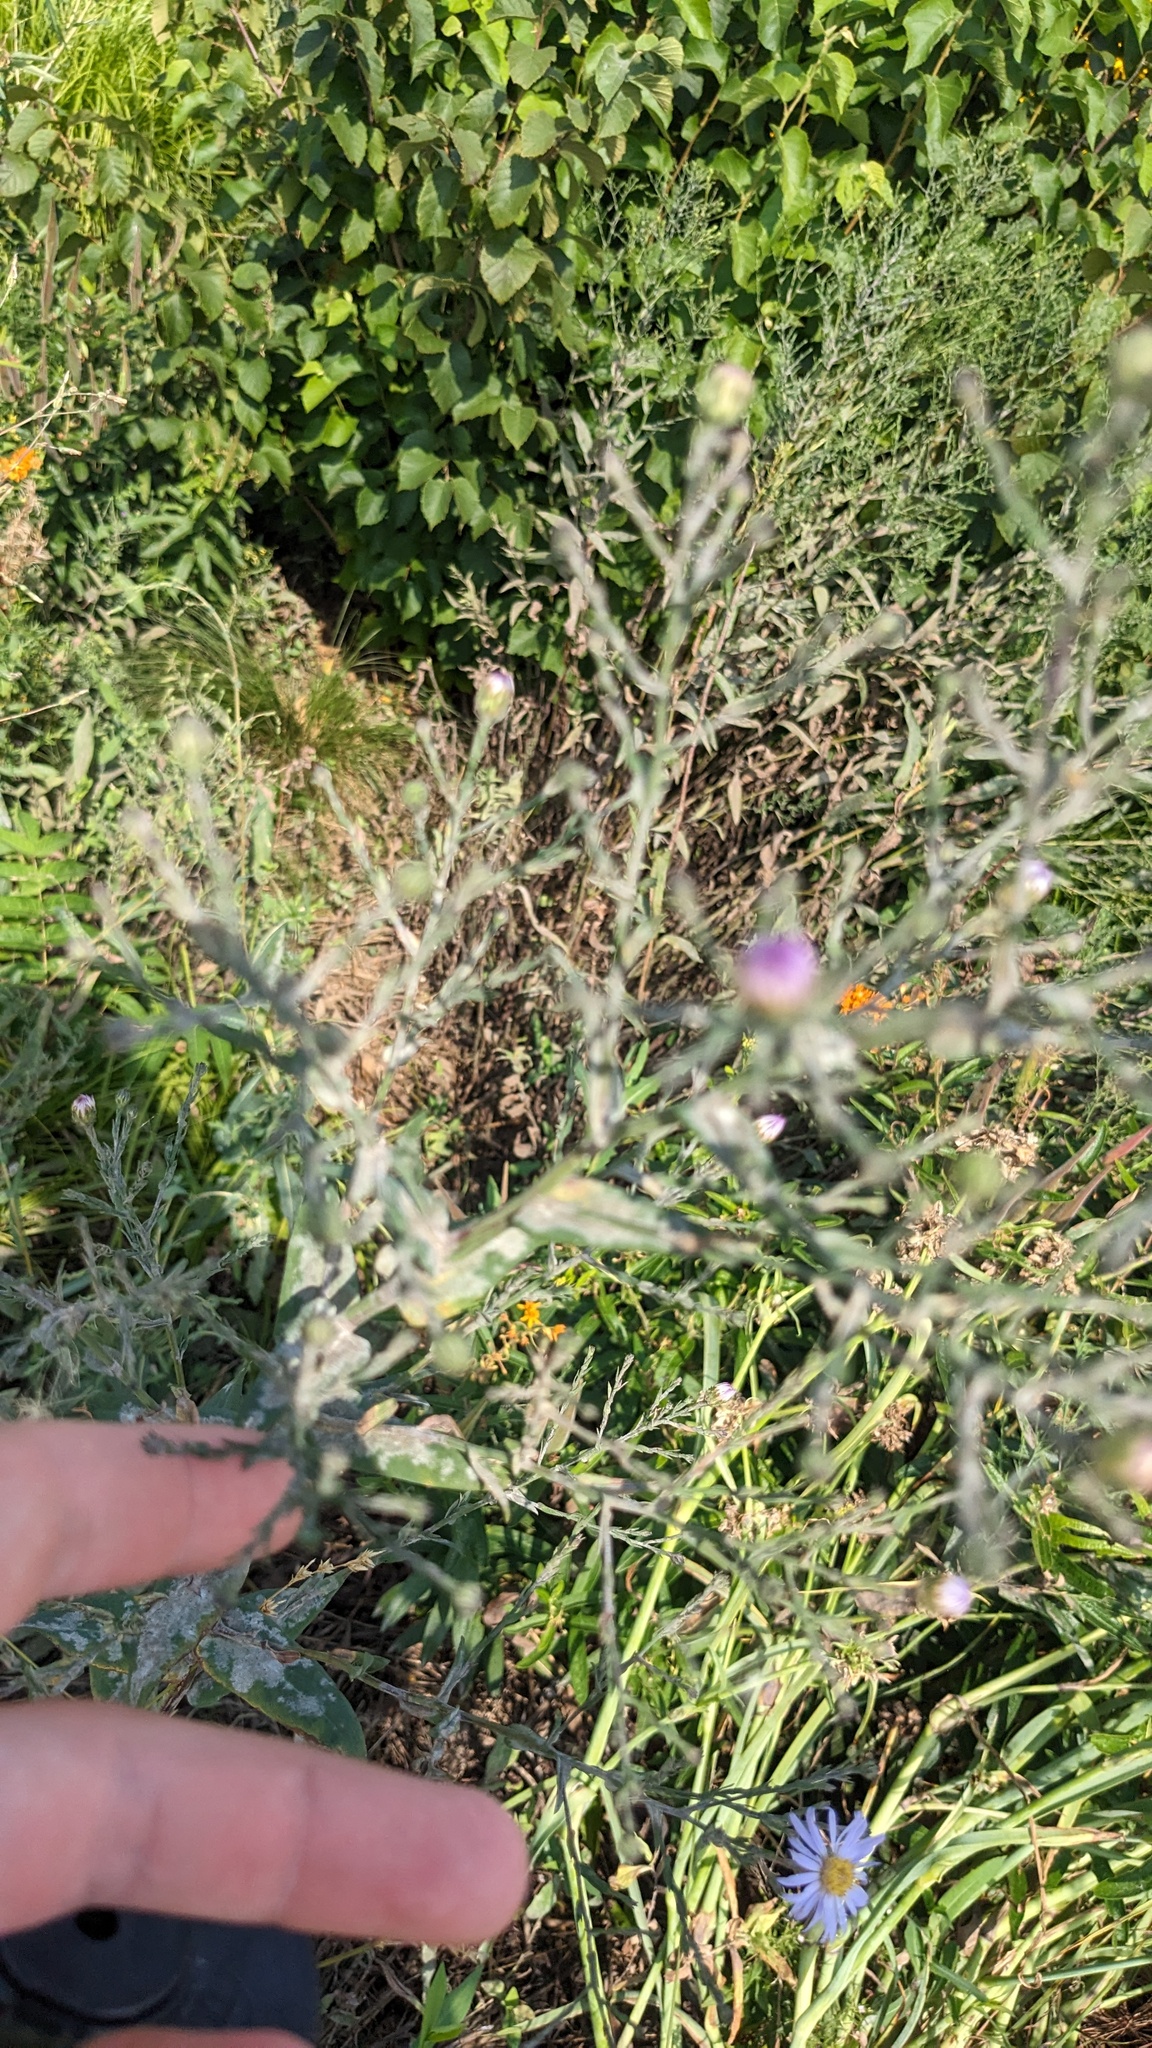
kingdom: Fungi
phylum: Ascomycota
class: Leotiomycetes
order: Helotiales
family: Erysiphaceae
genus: Golovinomyces
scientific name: Golovinomyces asterum
